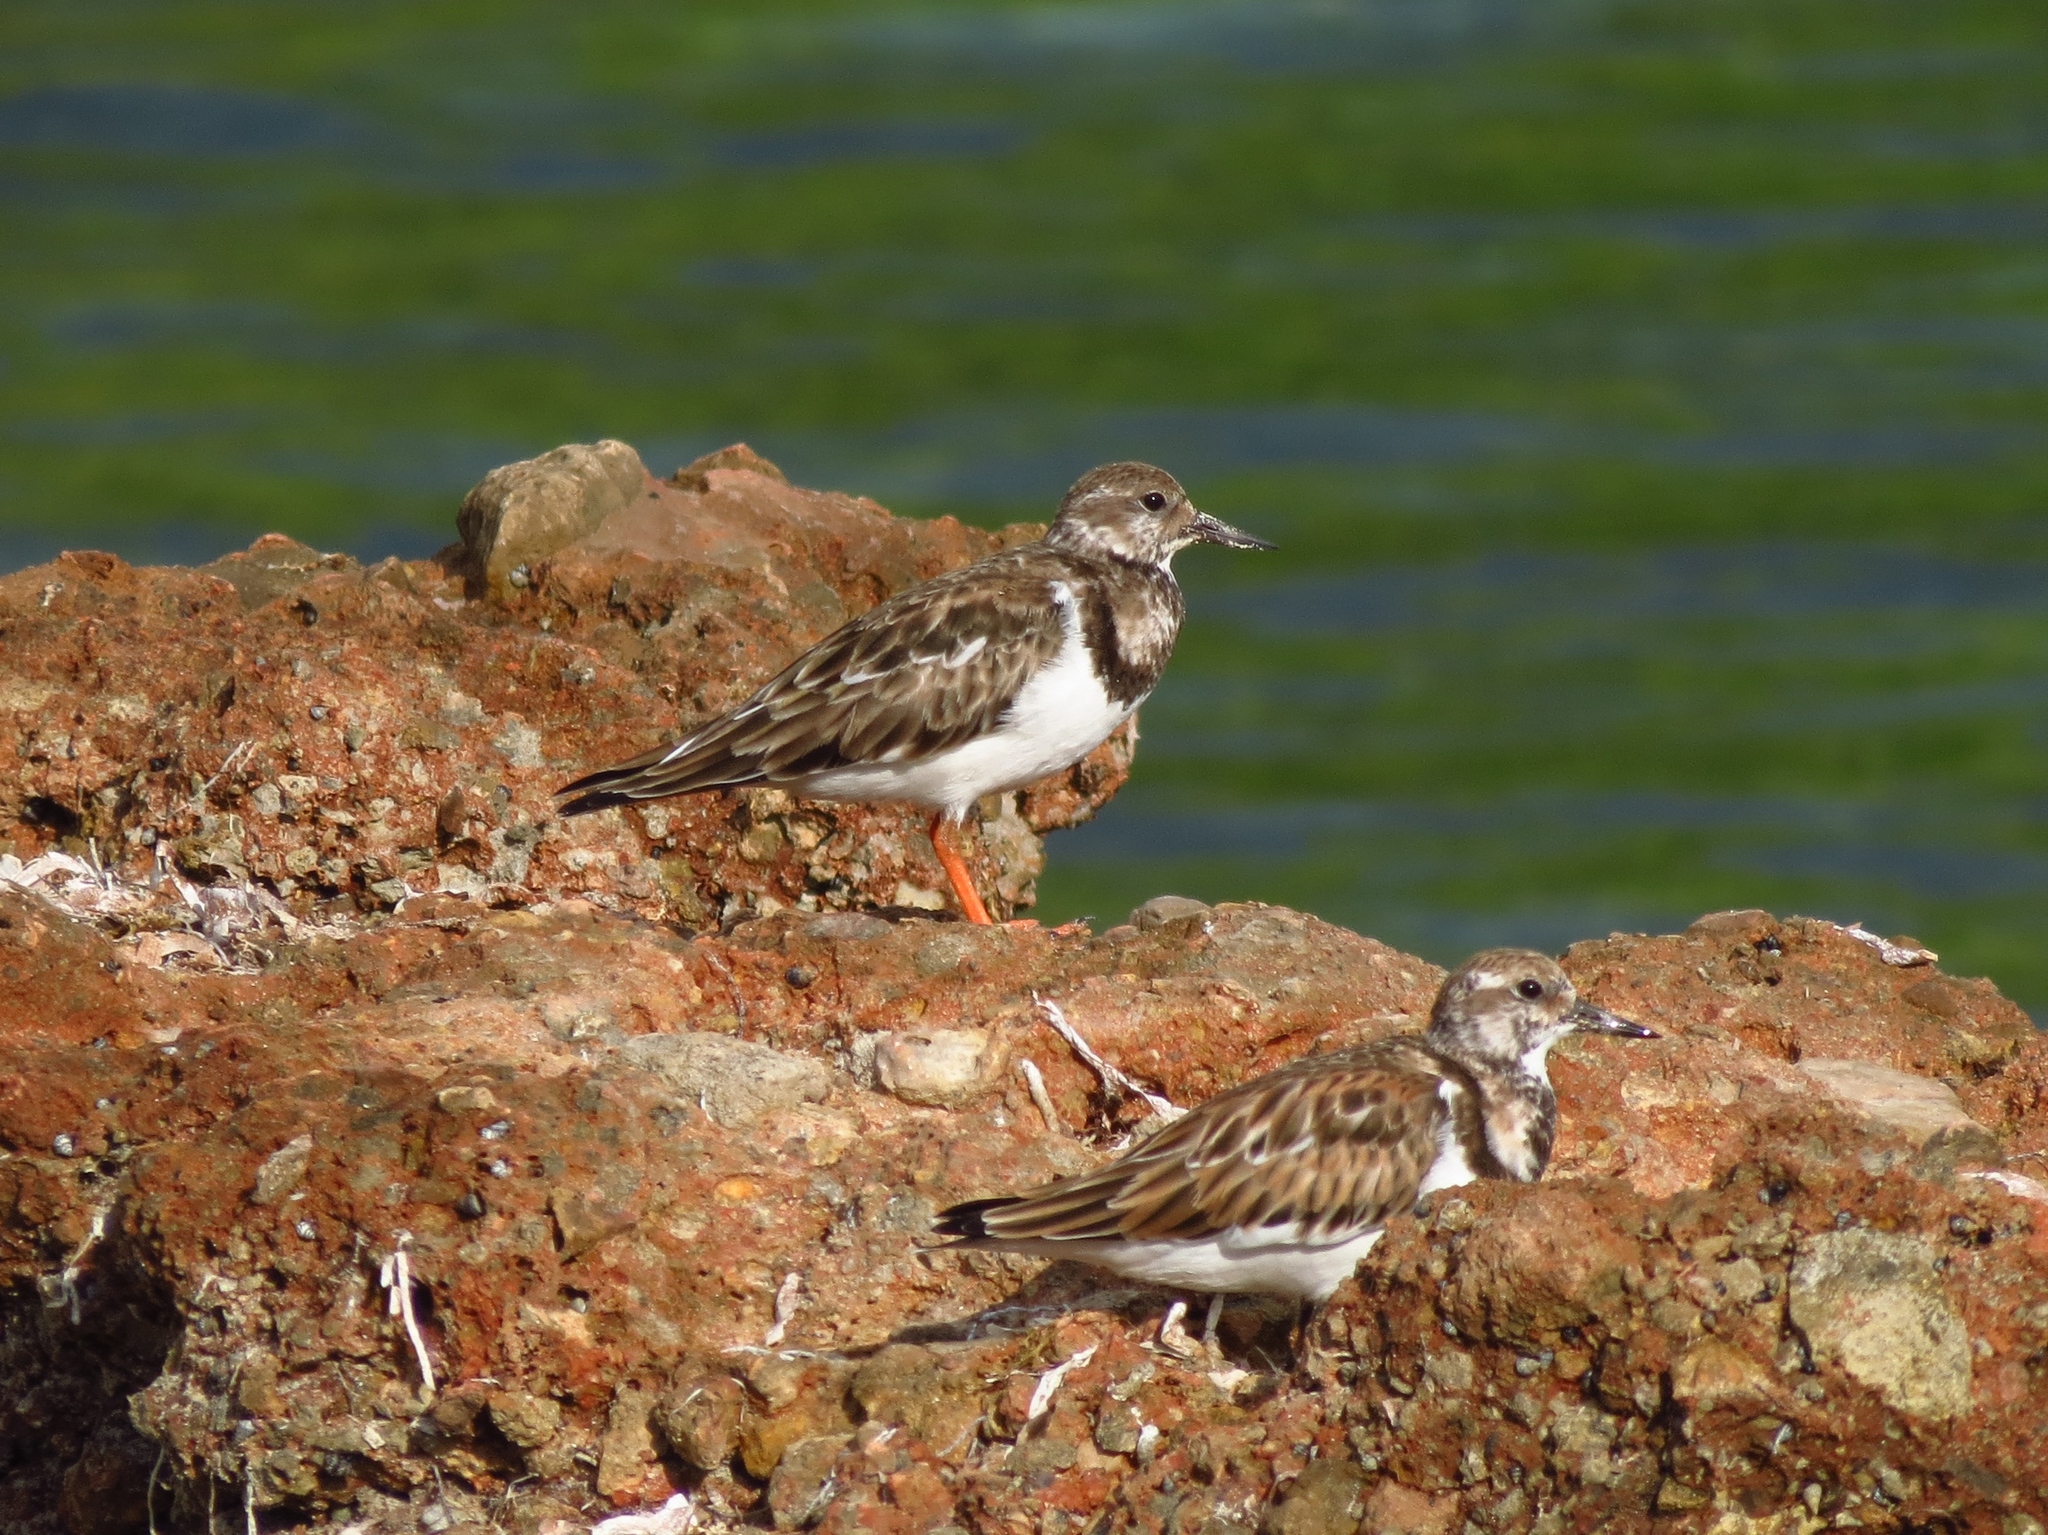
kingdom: Animalia
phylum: Chordata
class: Aves
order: Charadriiformes
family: Scolopacidae
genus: Arenaria
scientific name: Arenaria interpres
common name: Ruddy turnstone
